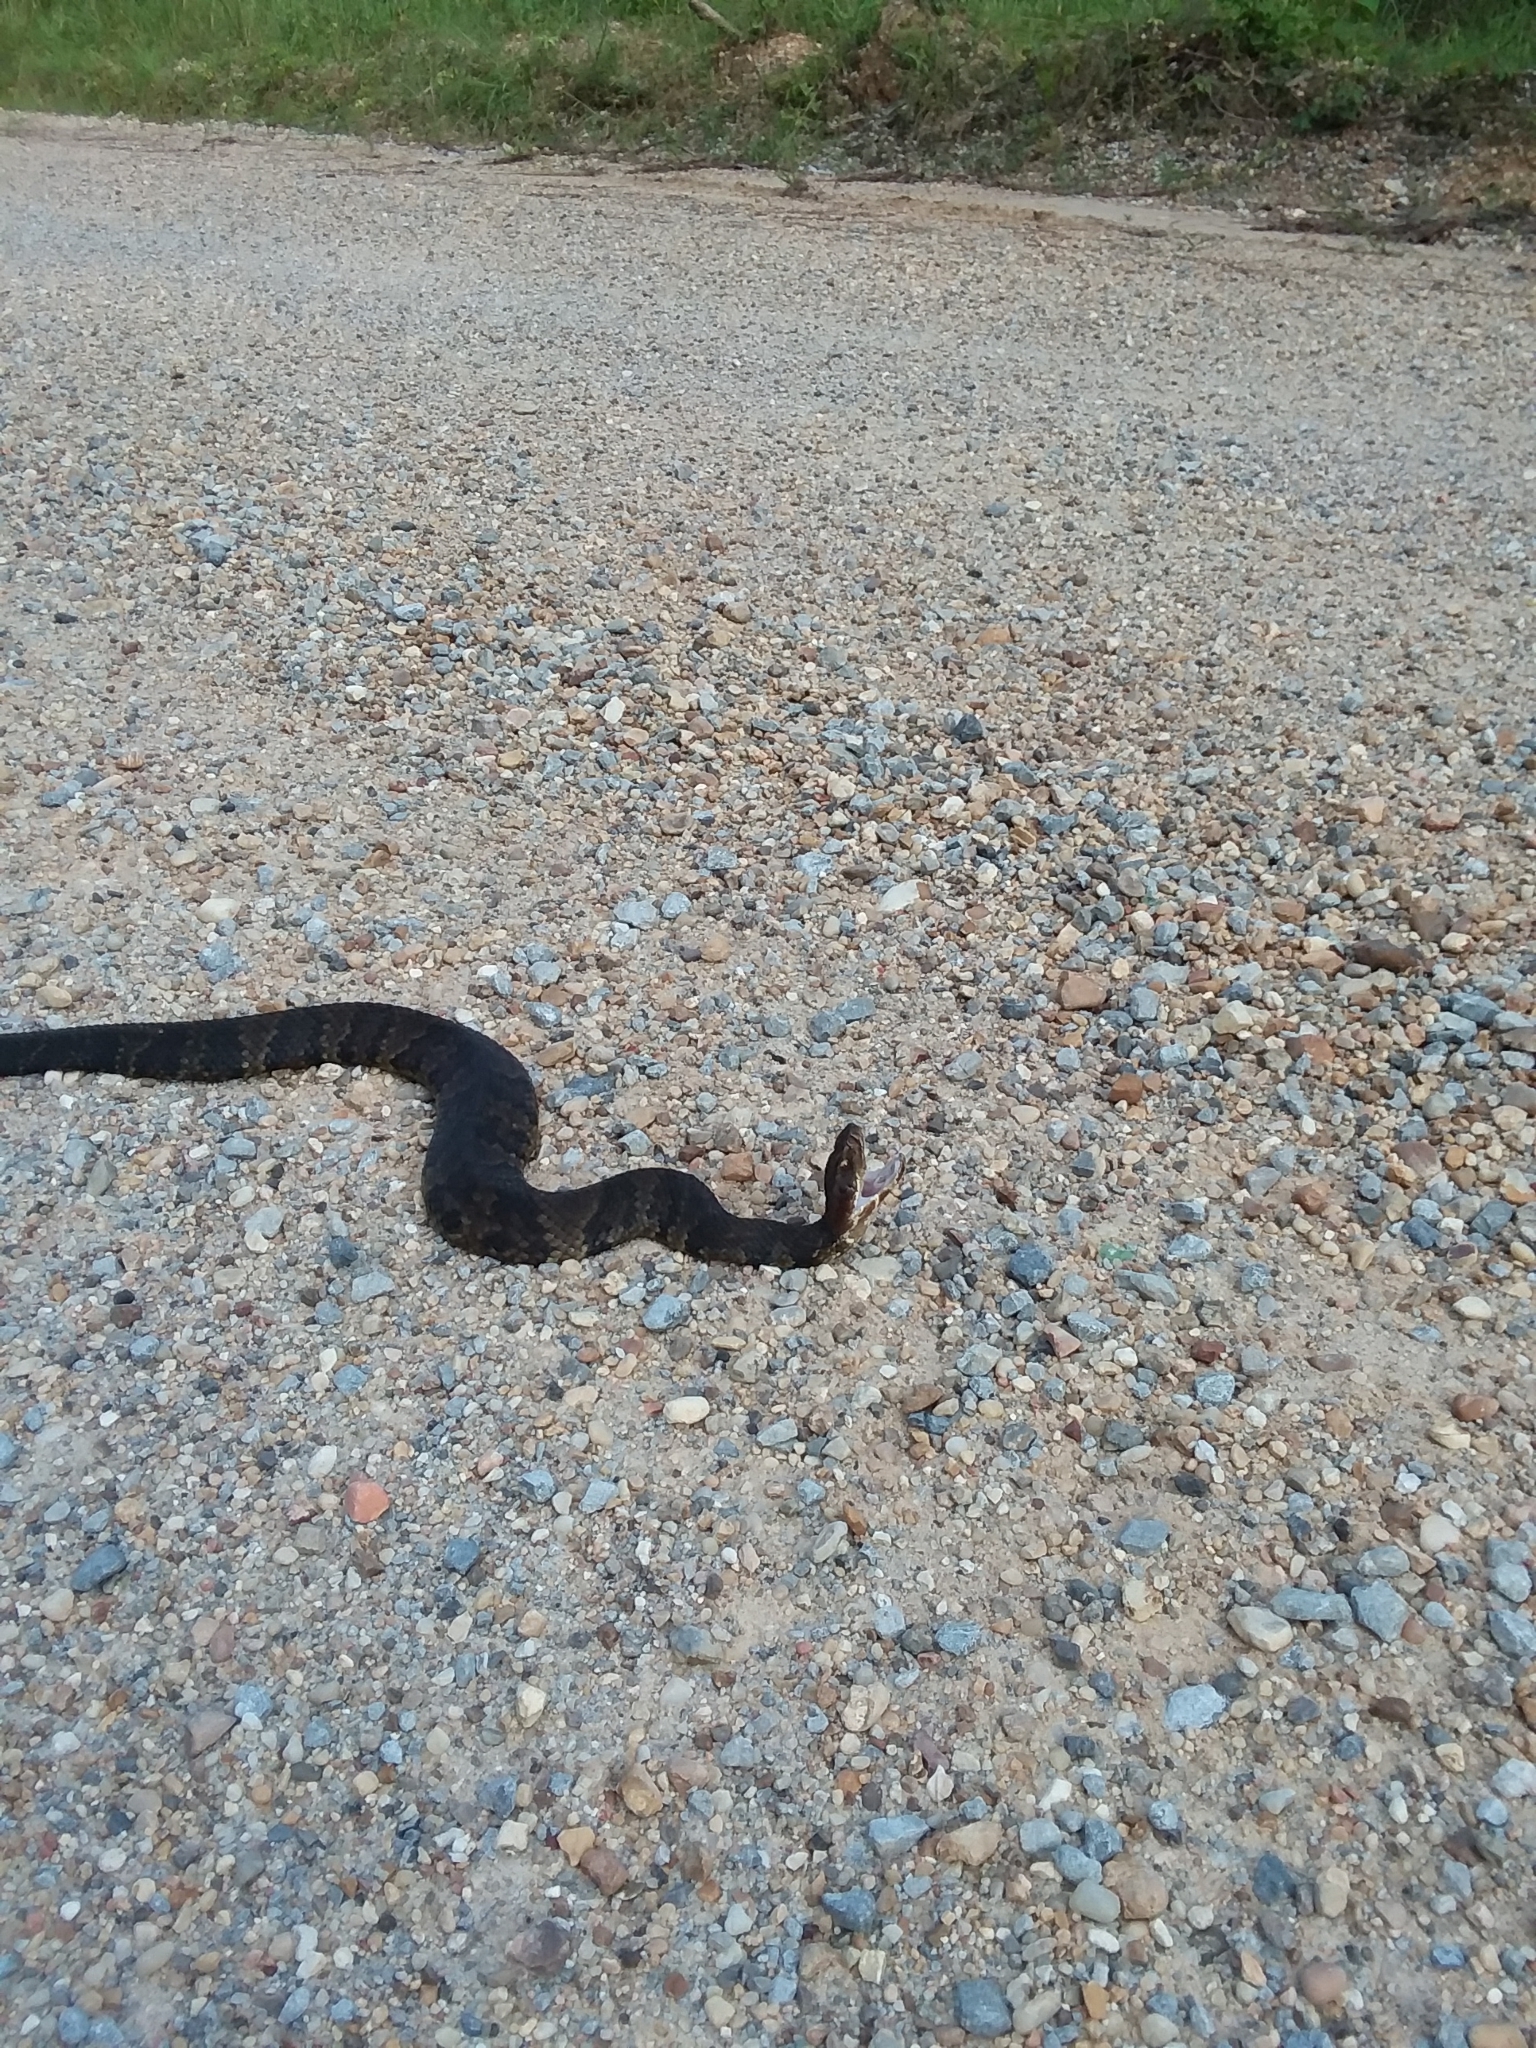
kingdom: Animalia
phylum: Chordata
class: Squamata
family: Viperidae
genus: Agkistrodon
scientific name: Agkistrodon piscivorus
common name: Cottonmouth
